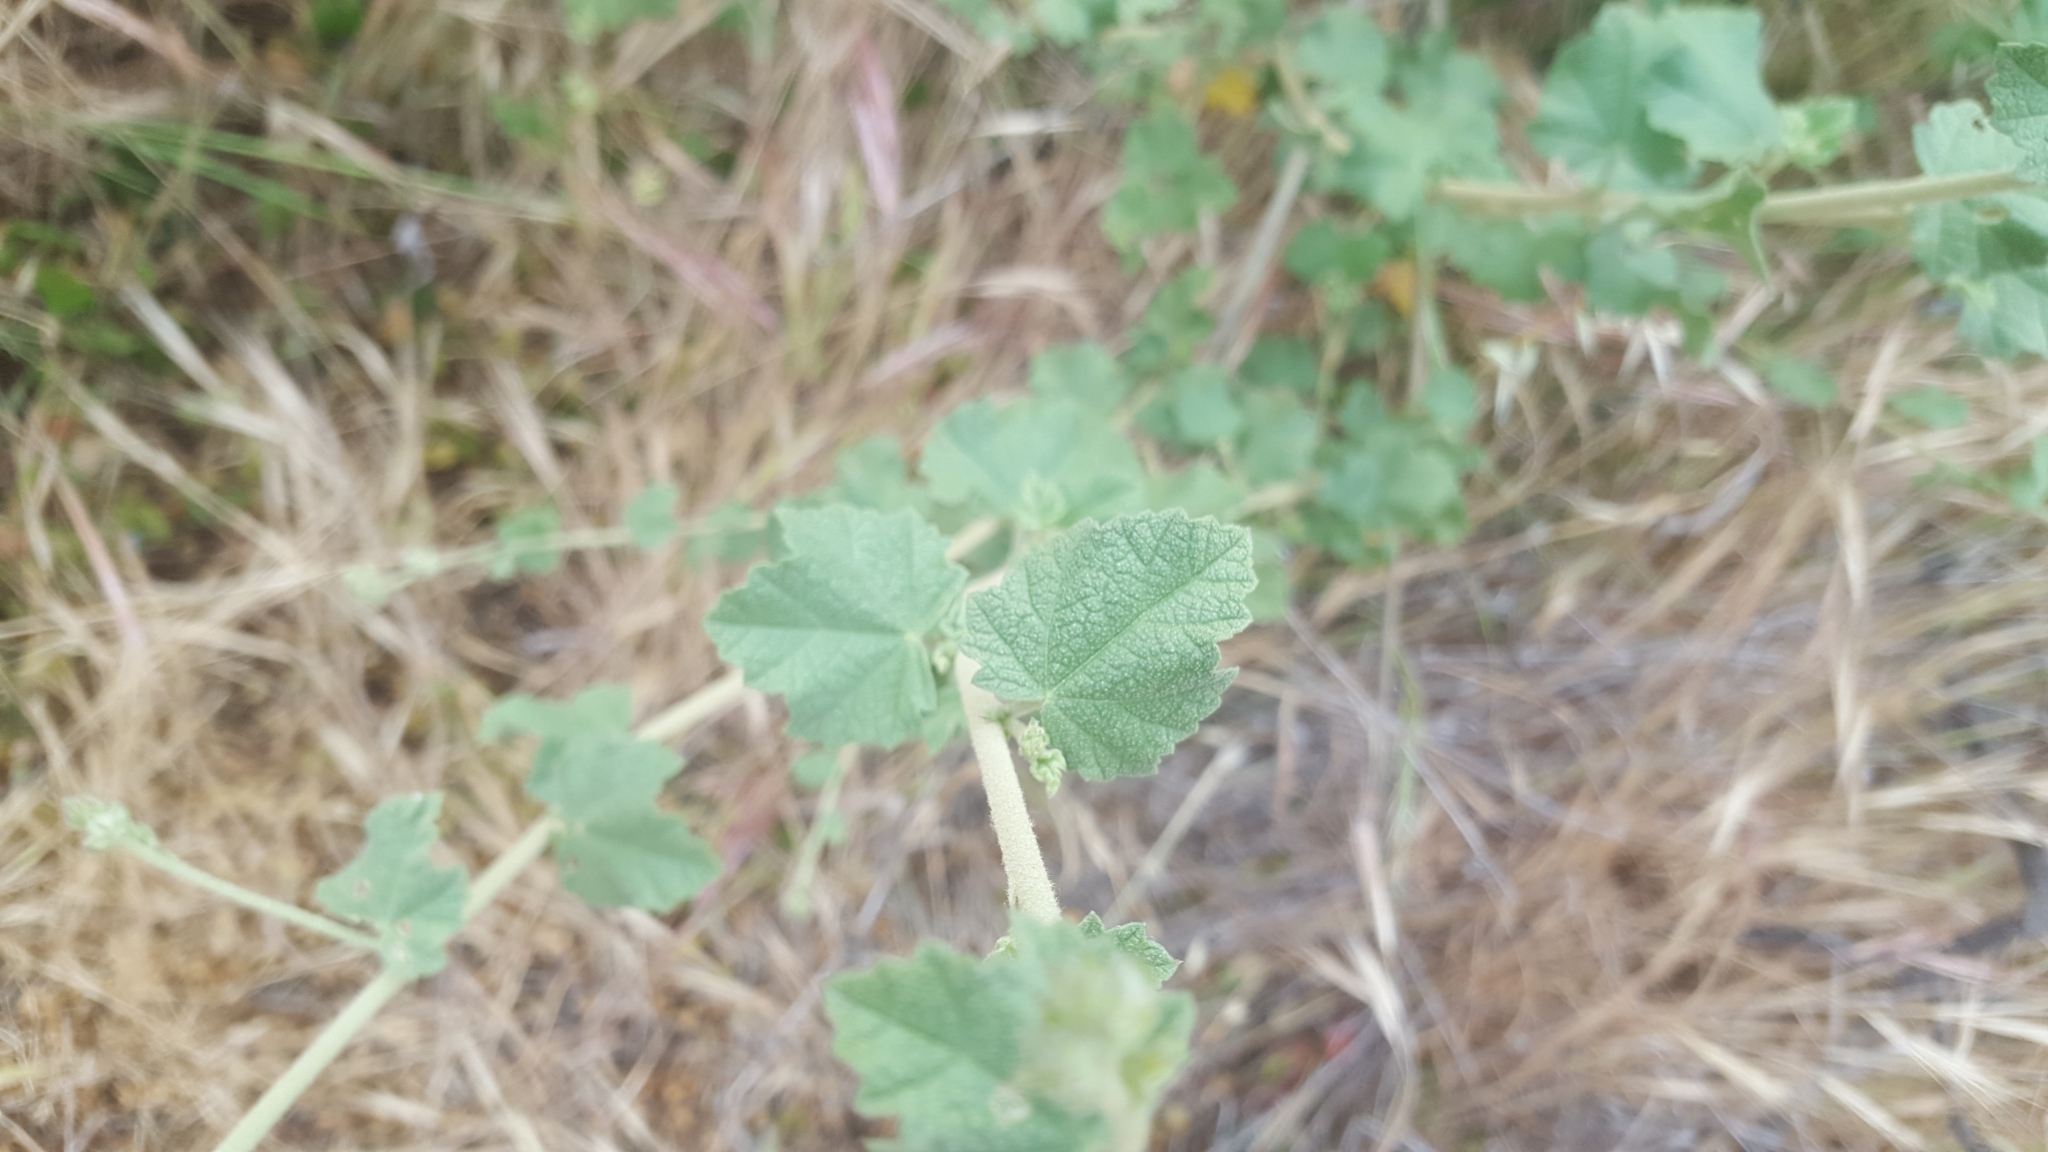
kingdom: Plantae
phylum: Tracheophyta
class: Magnoliopsida
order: Malvales
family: Malvaceae
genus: Malacothamnus
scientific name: Malacothamnus fasciculatus
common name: Sant cruz island bush-mallow
